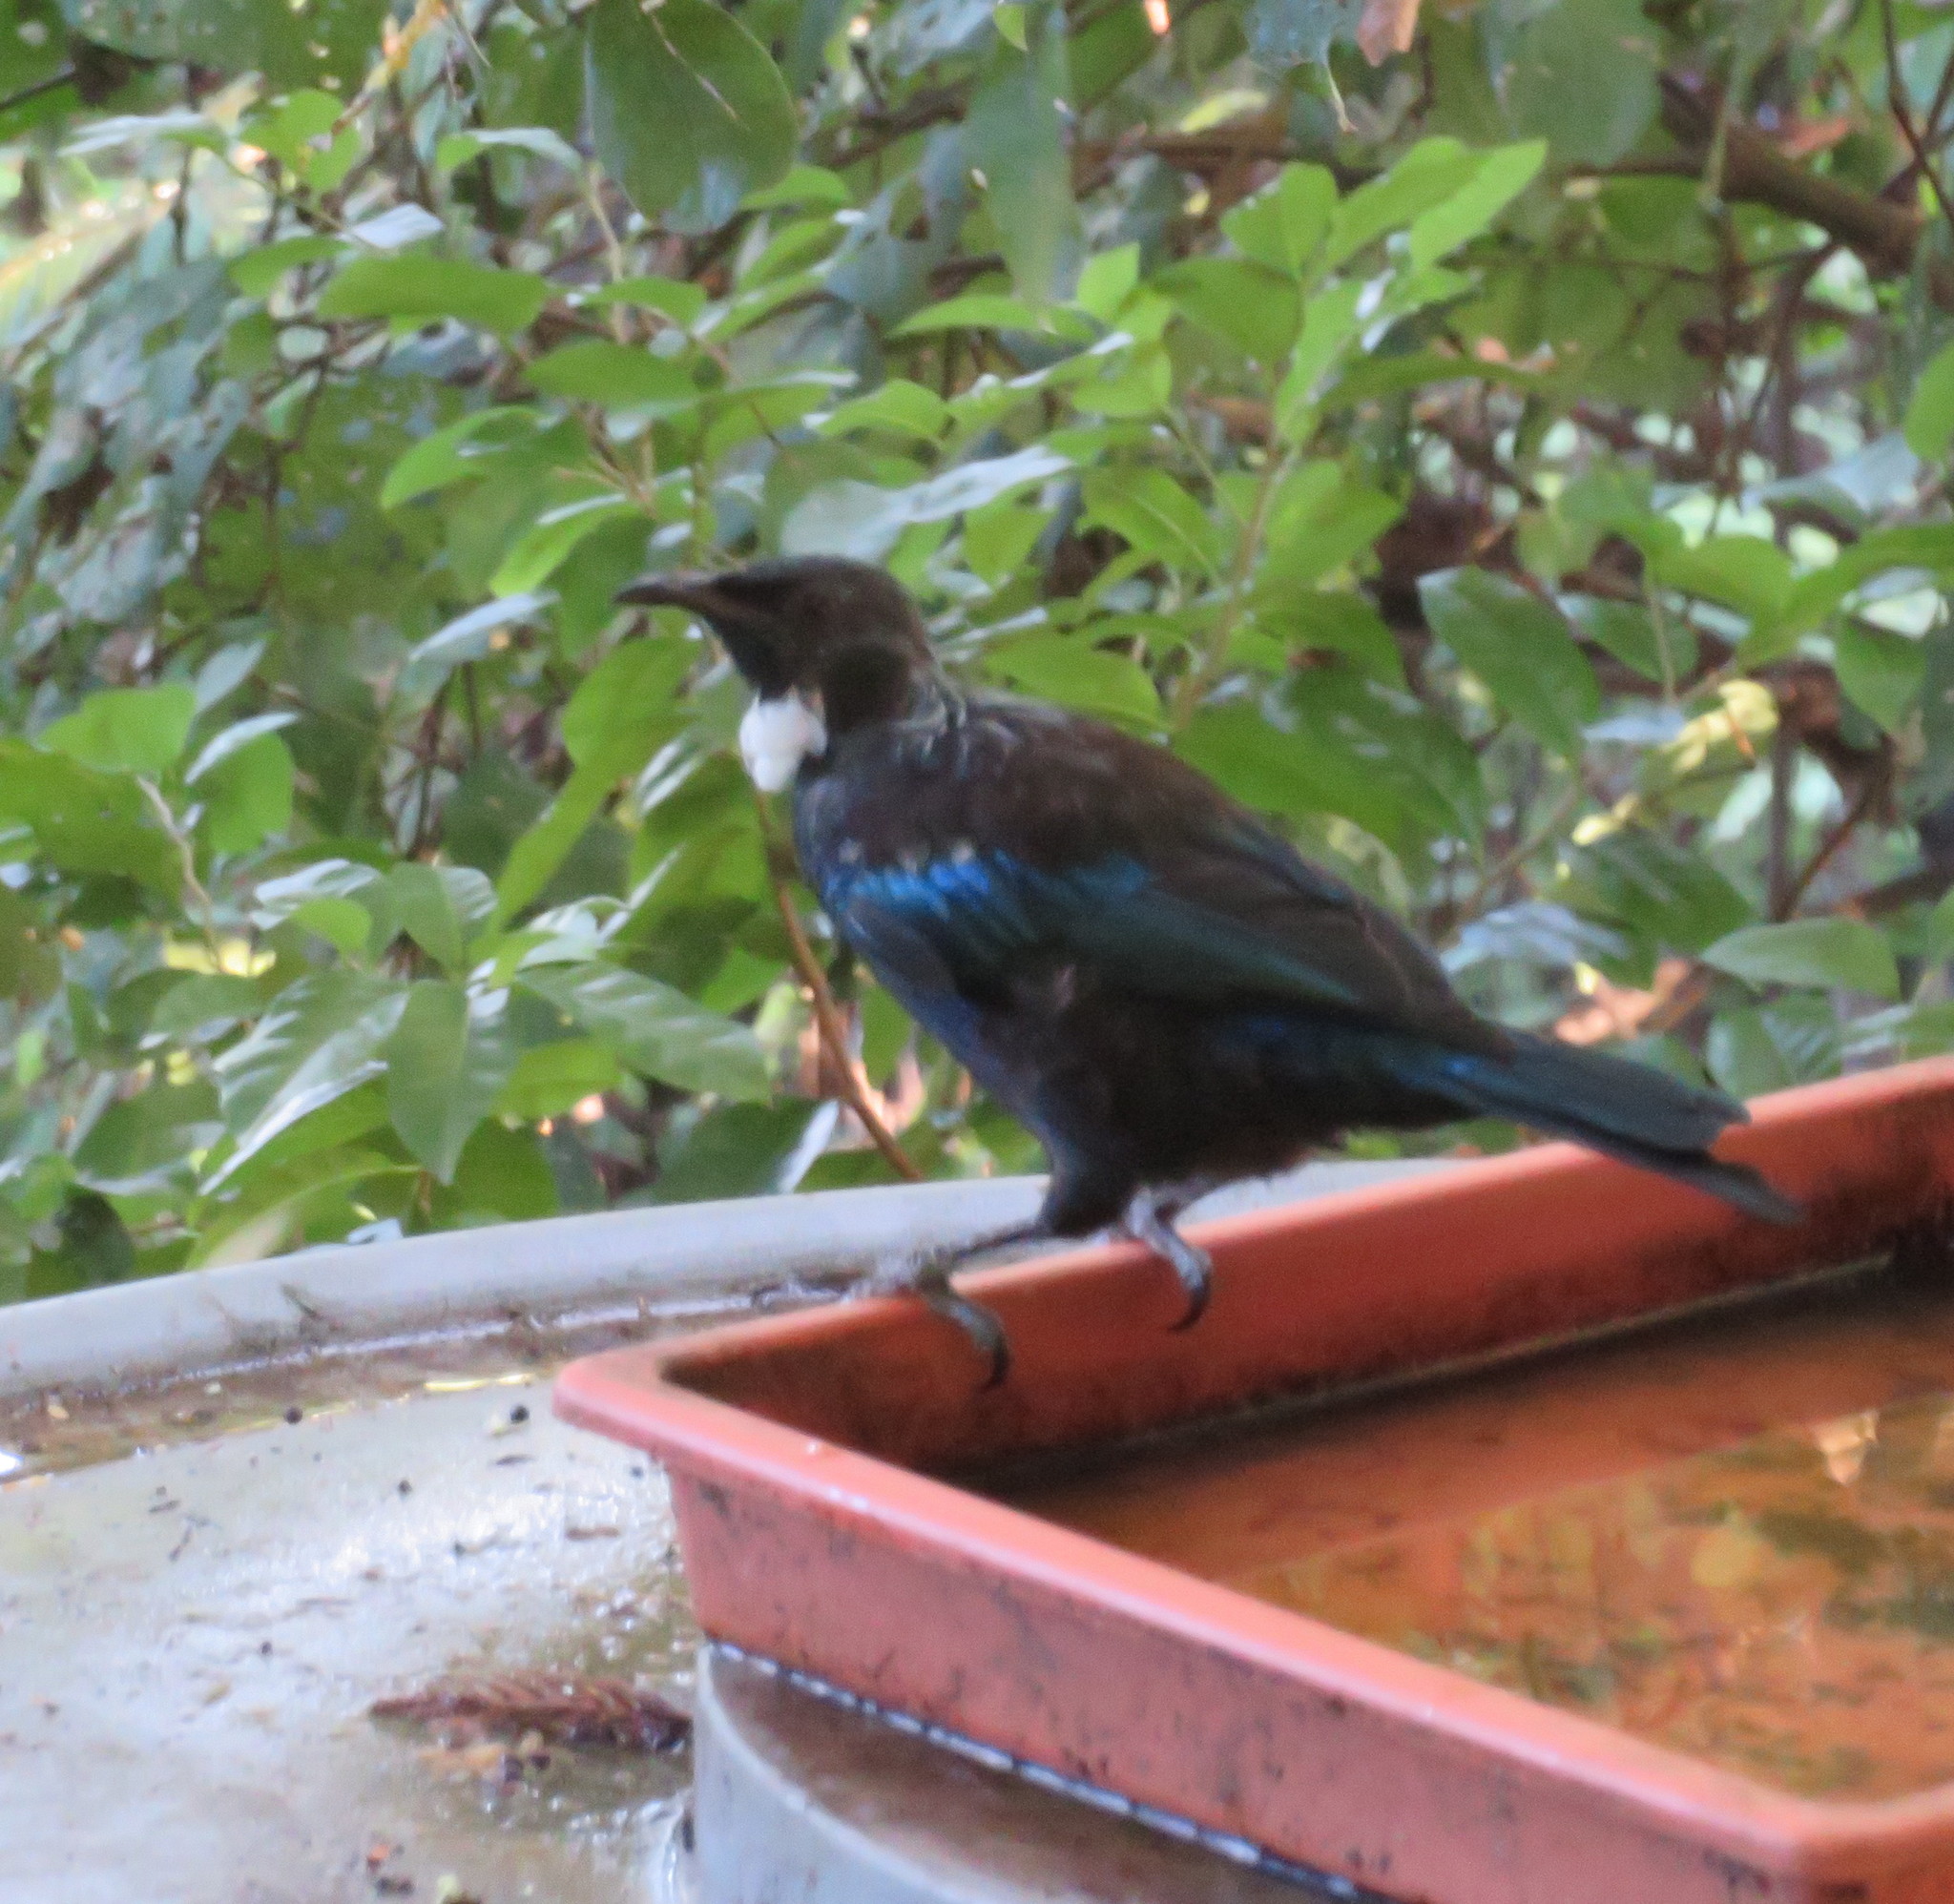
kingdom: Animalia
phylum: Chordata
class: Aves
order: Passeriformes
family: Meliphagidae
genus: Prosthemadera
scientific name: Prosthemadera novaeseelandiae
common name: Tui
